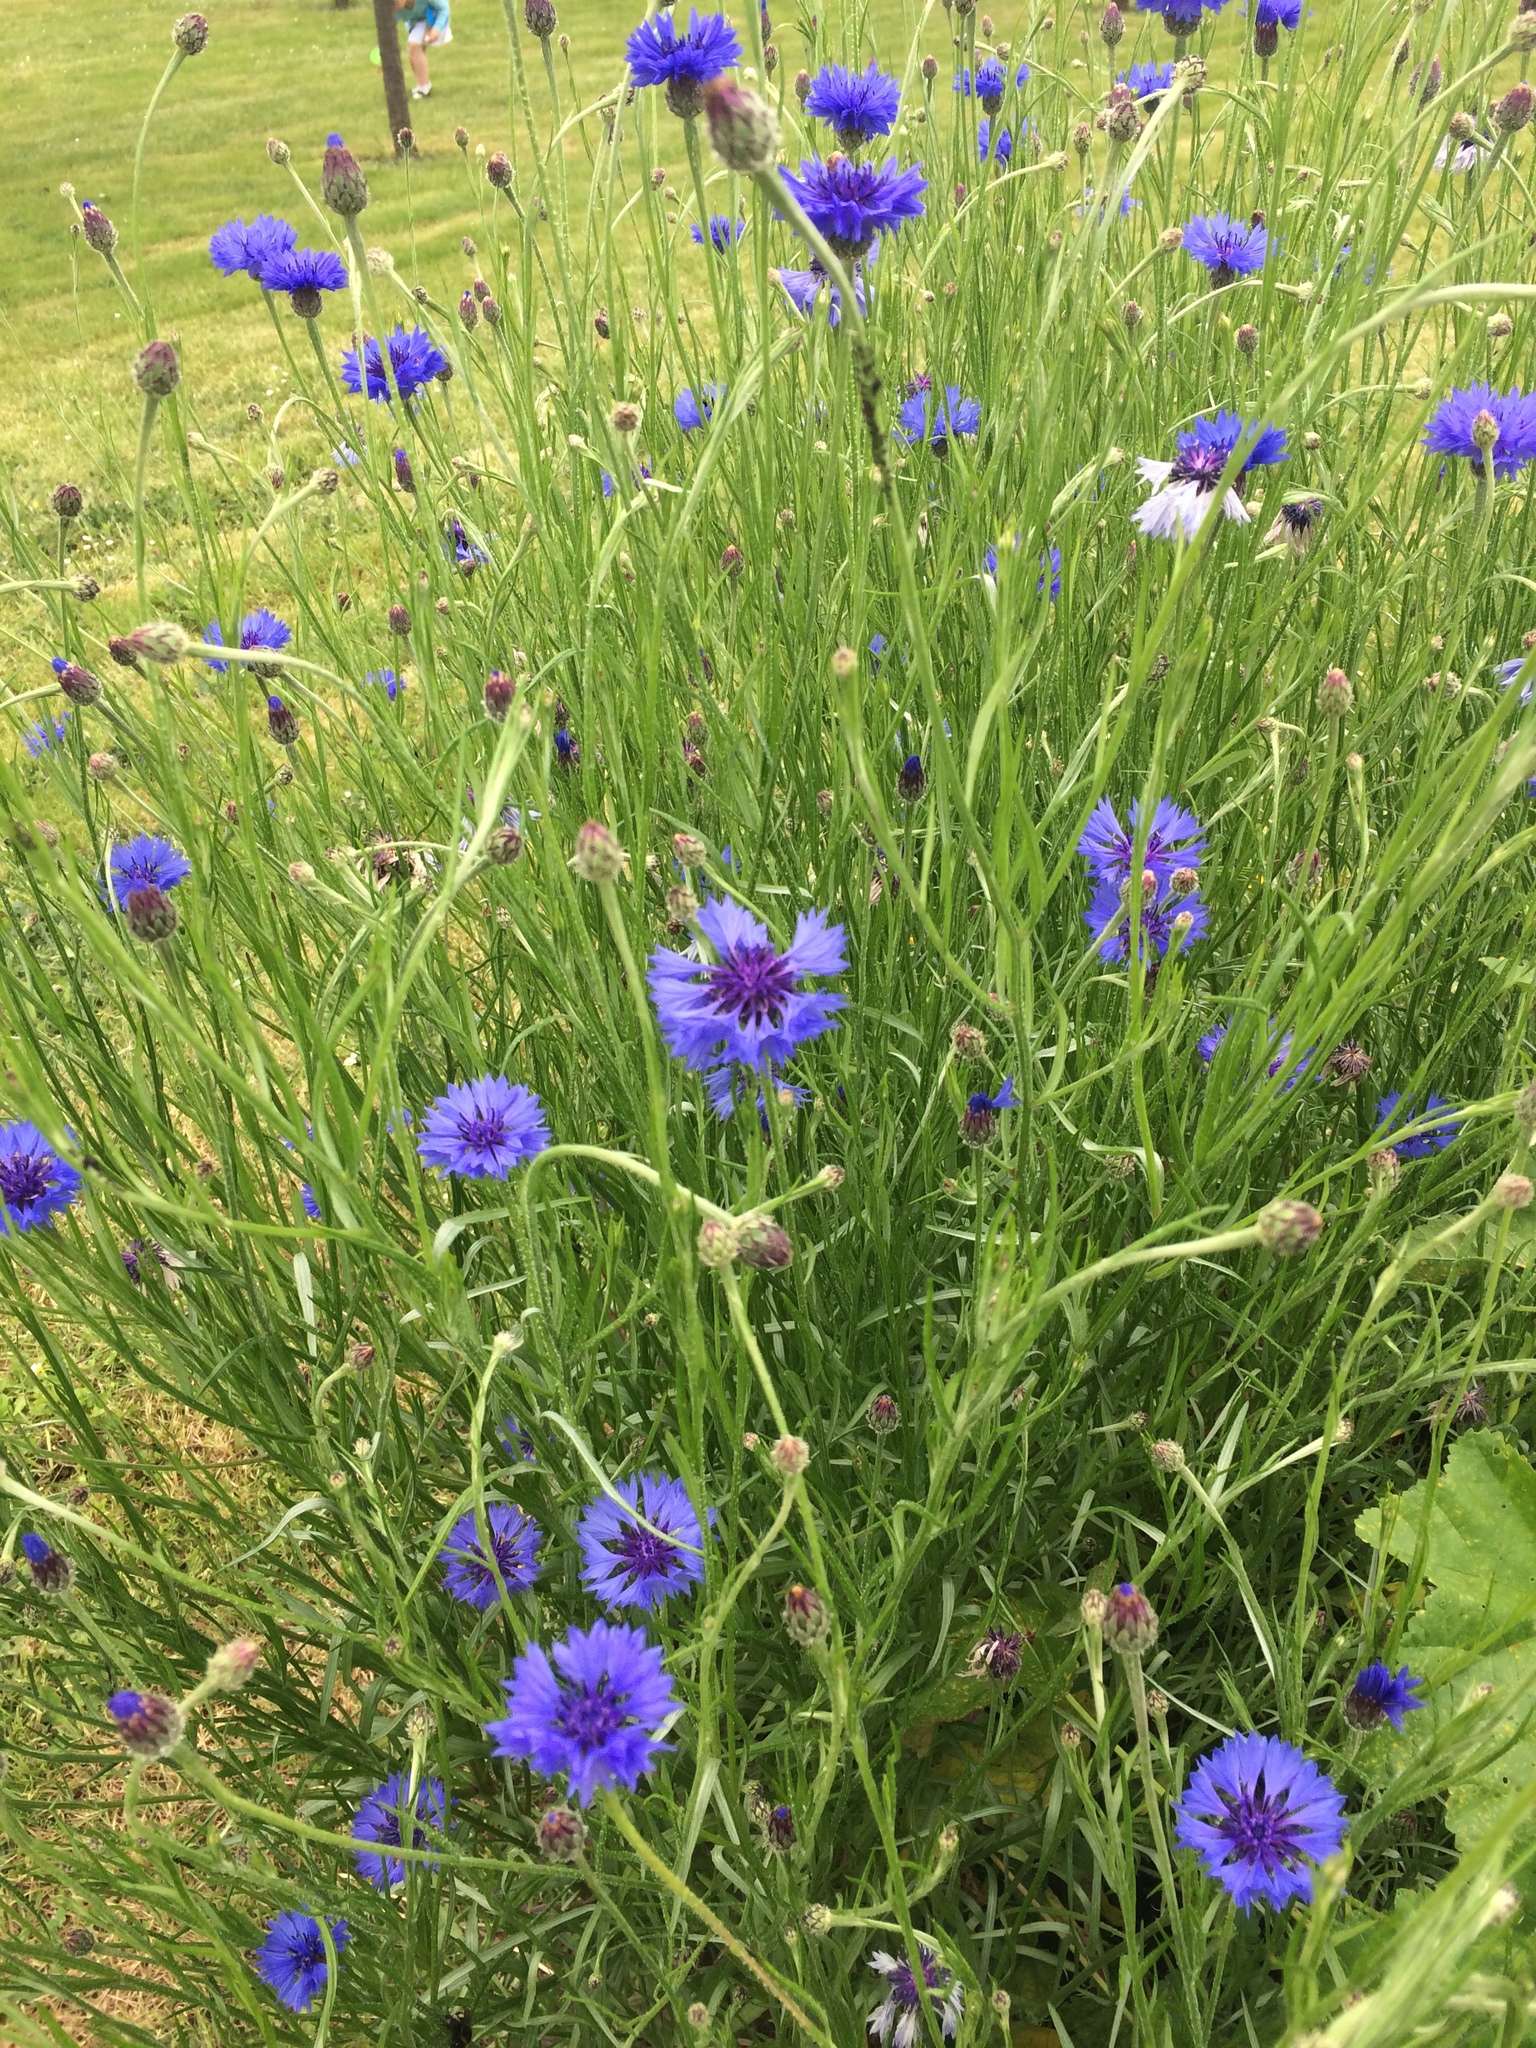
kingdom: Plantae
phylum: Tracheophyta
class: Magnoliopsida
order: Asterales
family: Asteraceae
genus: Centaurea
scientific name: Centaurea cyanus
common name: Cornflower
